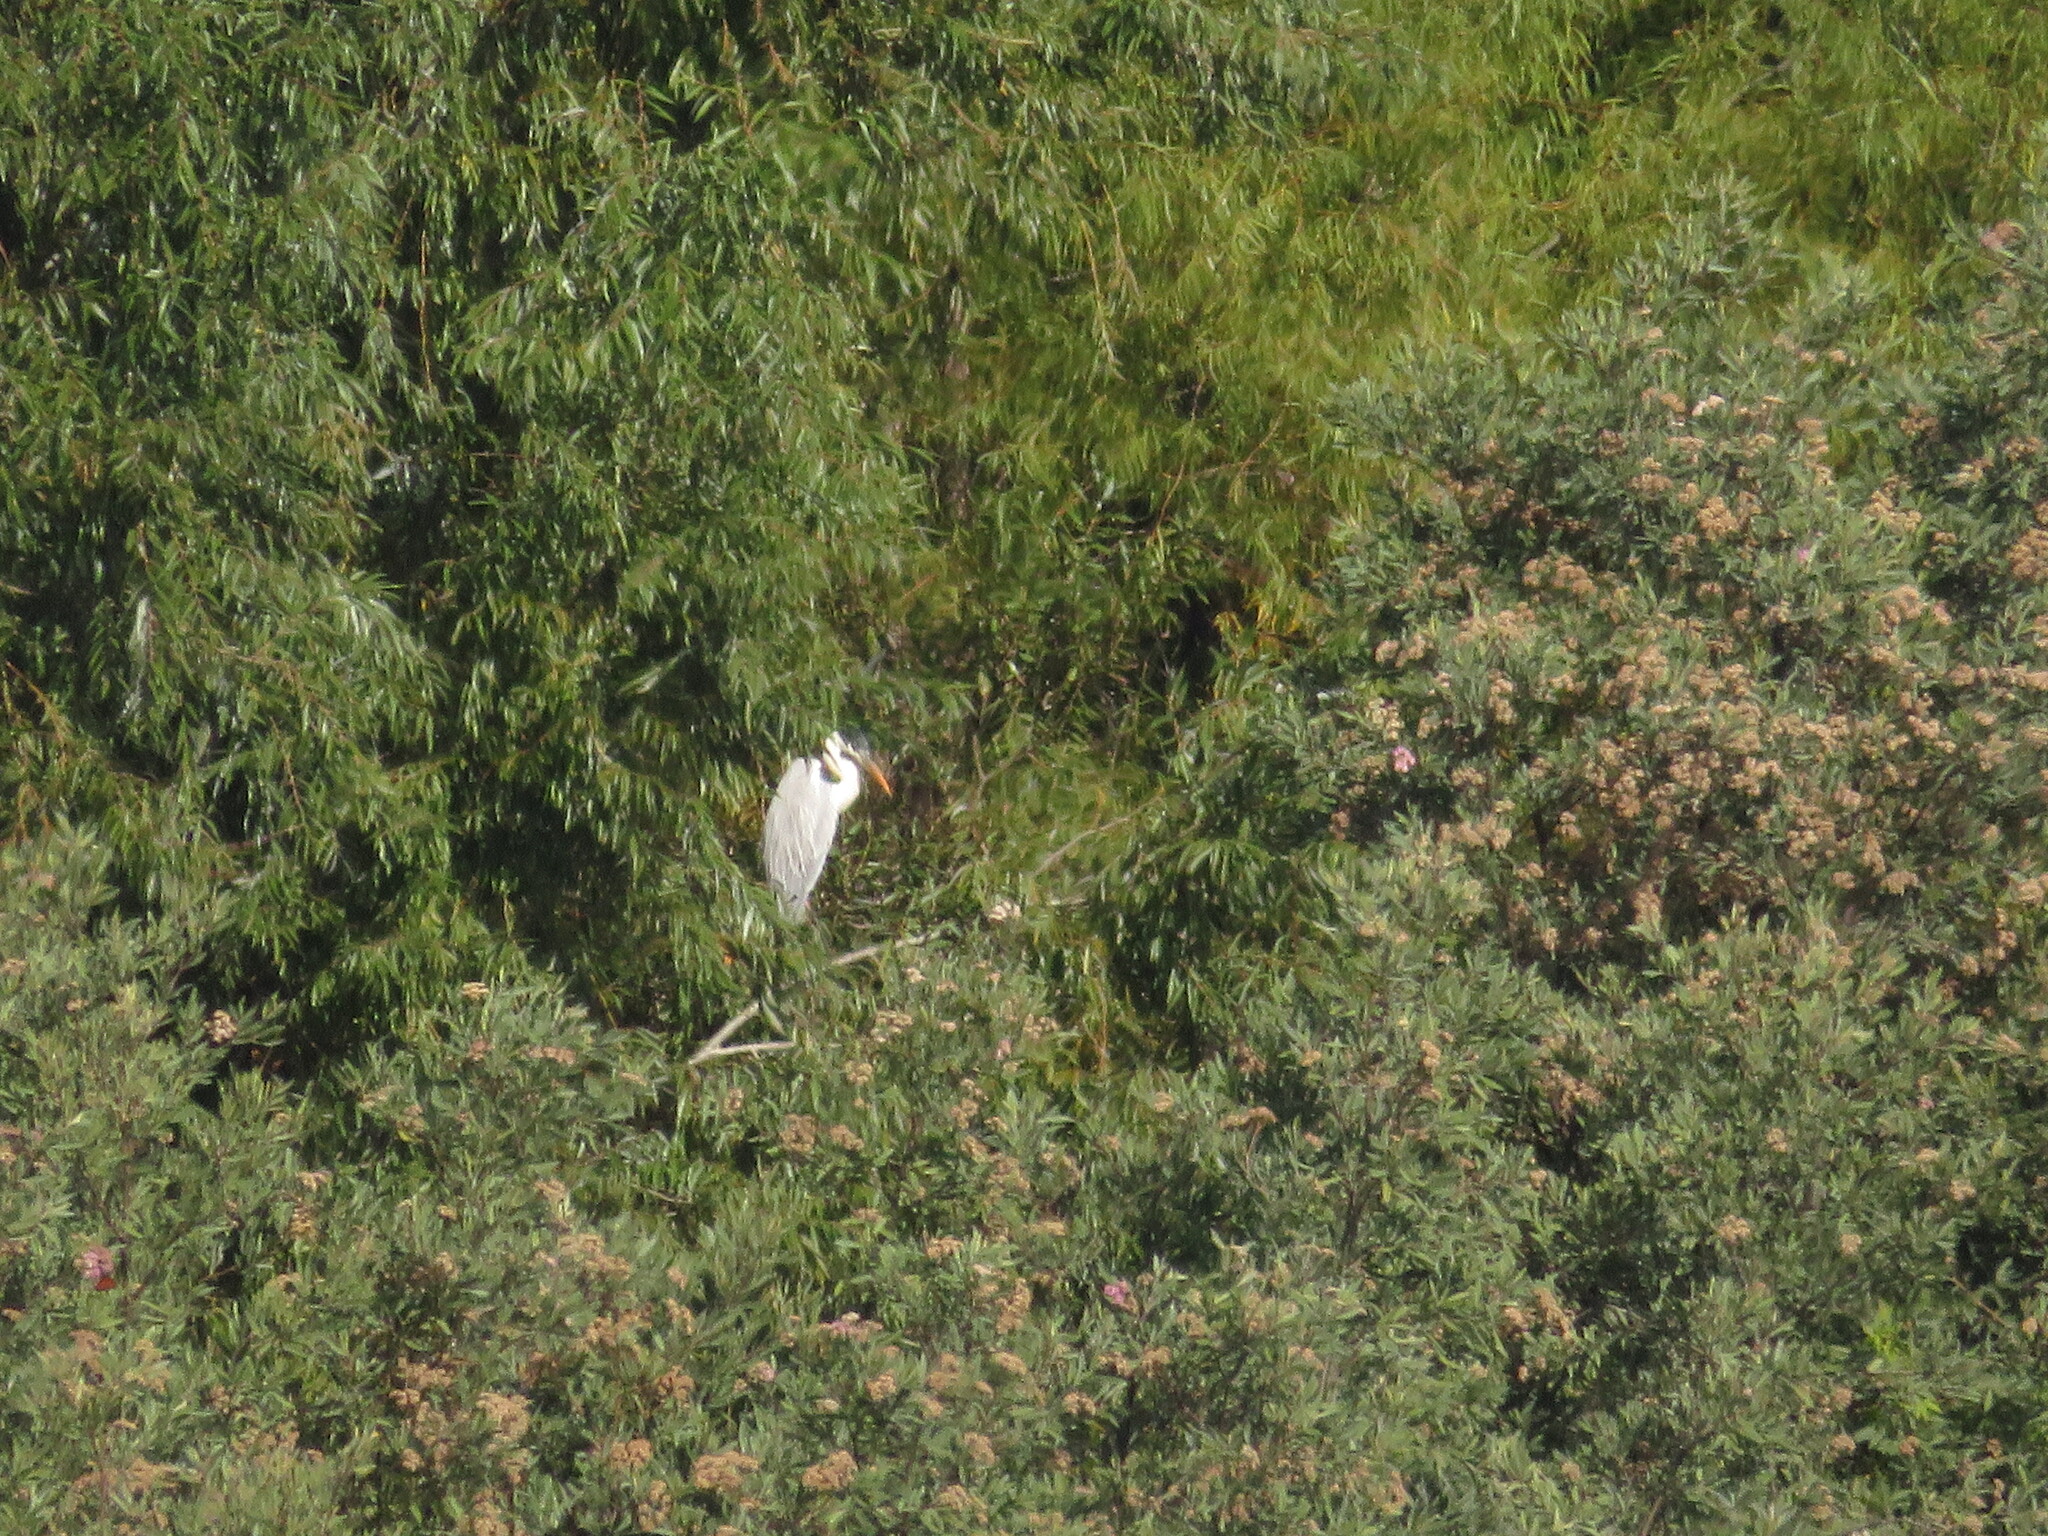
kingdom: Animalia
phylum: Chordata
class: Aves
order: Pelecaniformes
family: Ardeidae
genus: Ardea
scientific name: Ardea cocoi
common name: Cocoi heron
